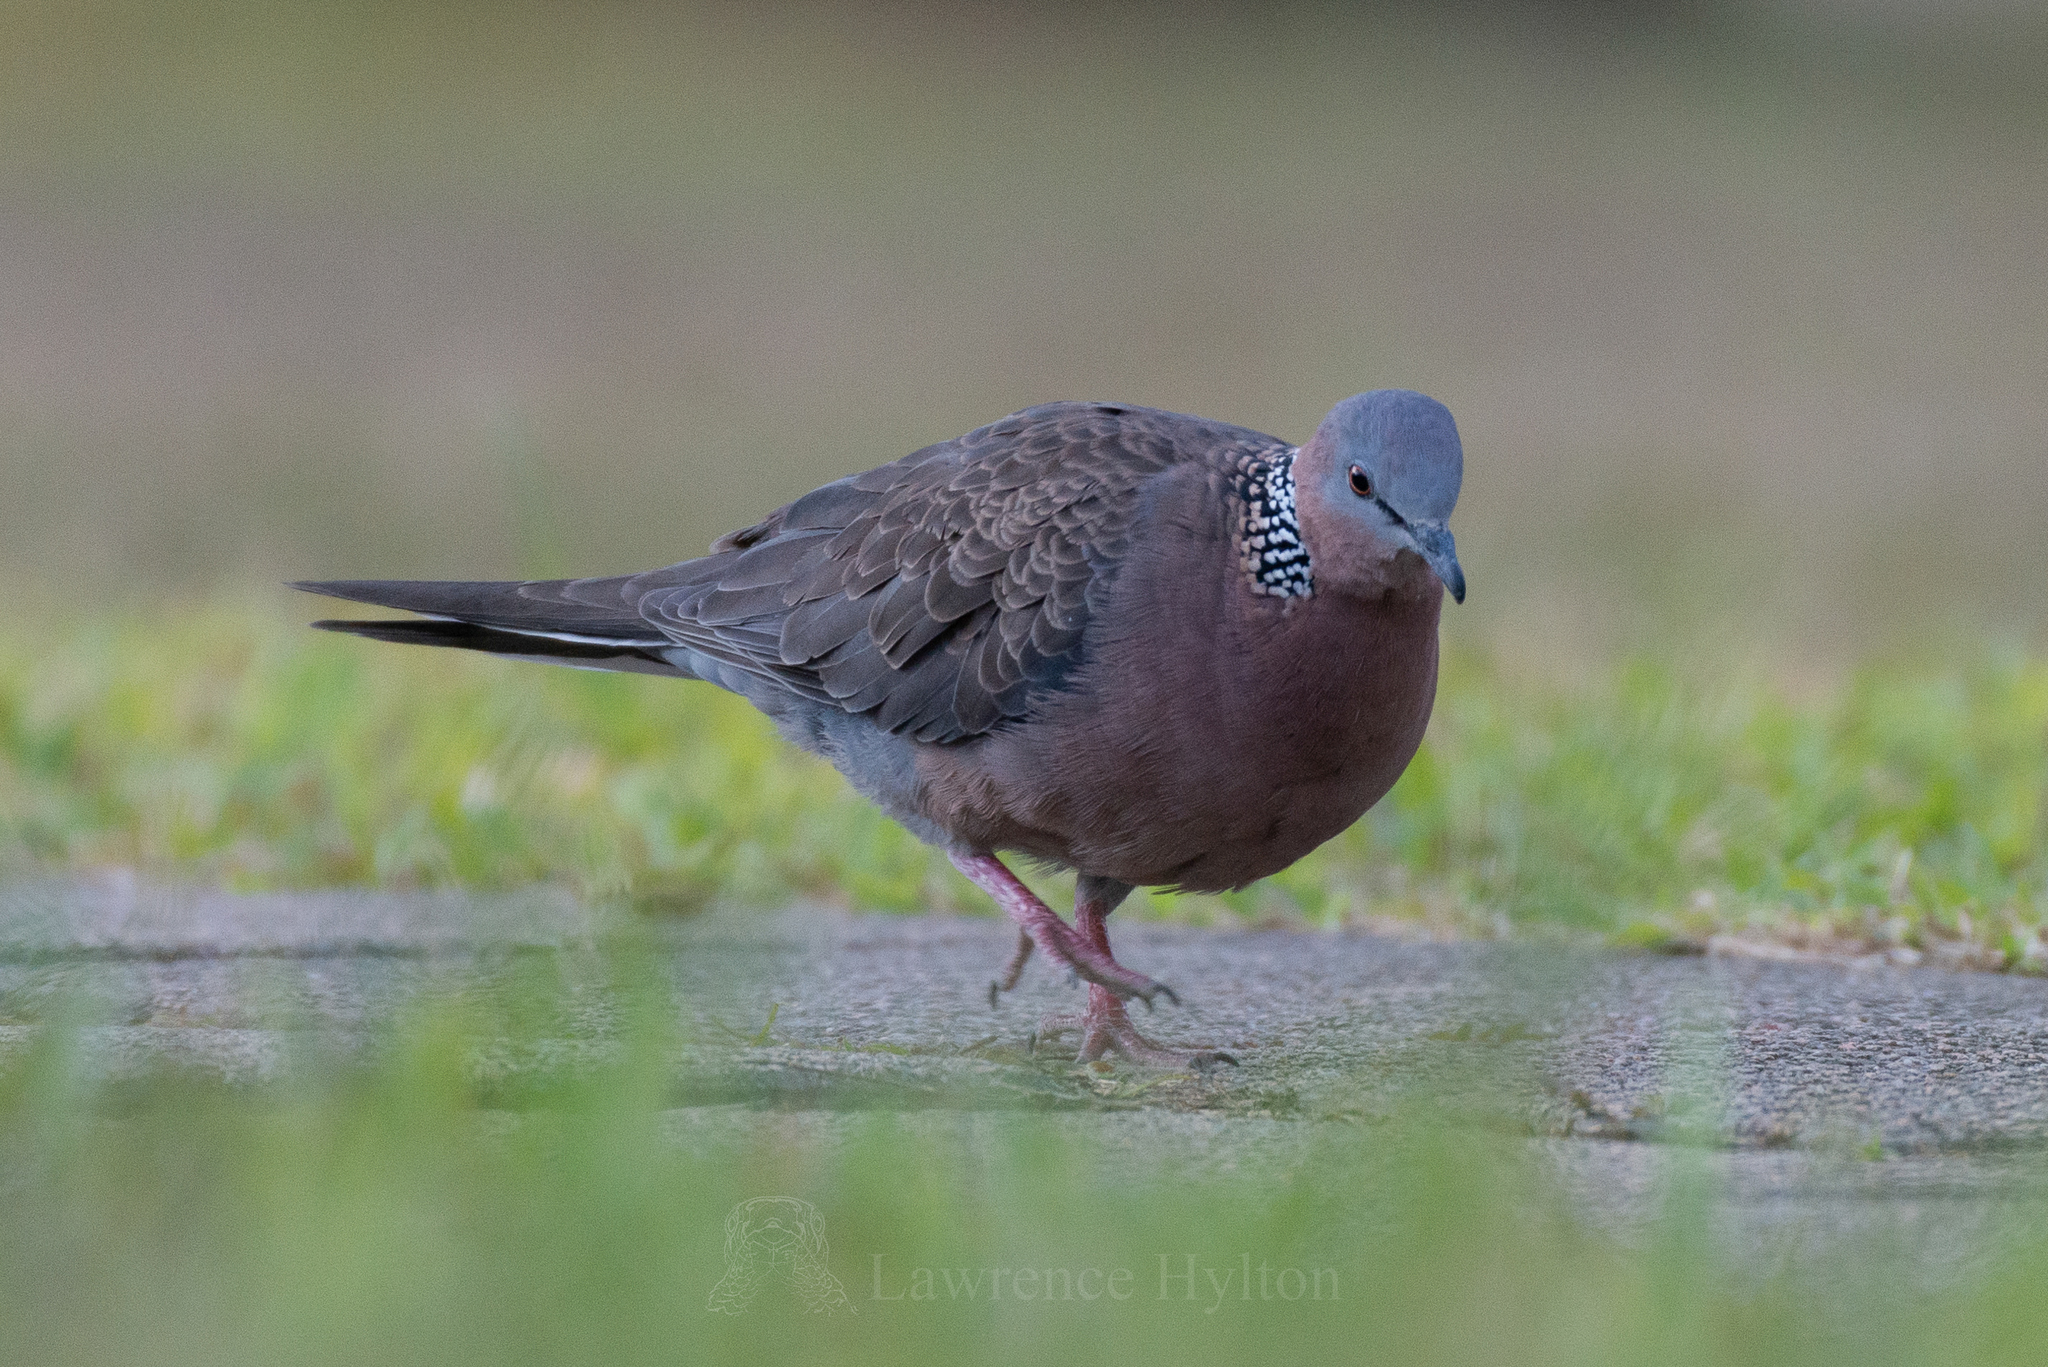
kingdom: Animalia
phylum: Chordata
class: Aves
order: Columbiformes
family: Columbidae
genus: Spilopelia
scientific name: Spilopelia chinensis
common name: Spotted dove
